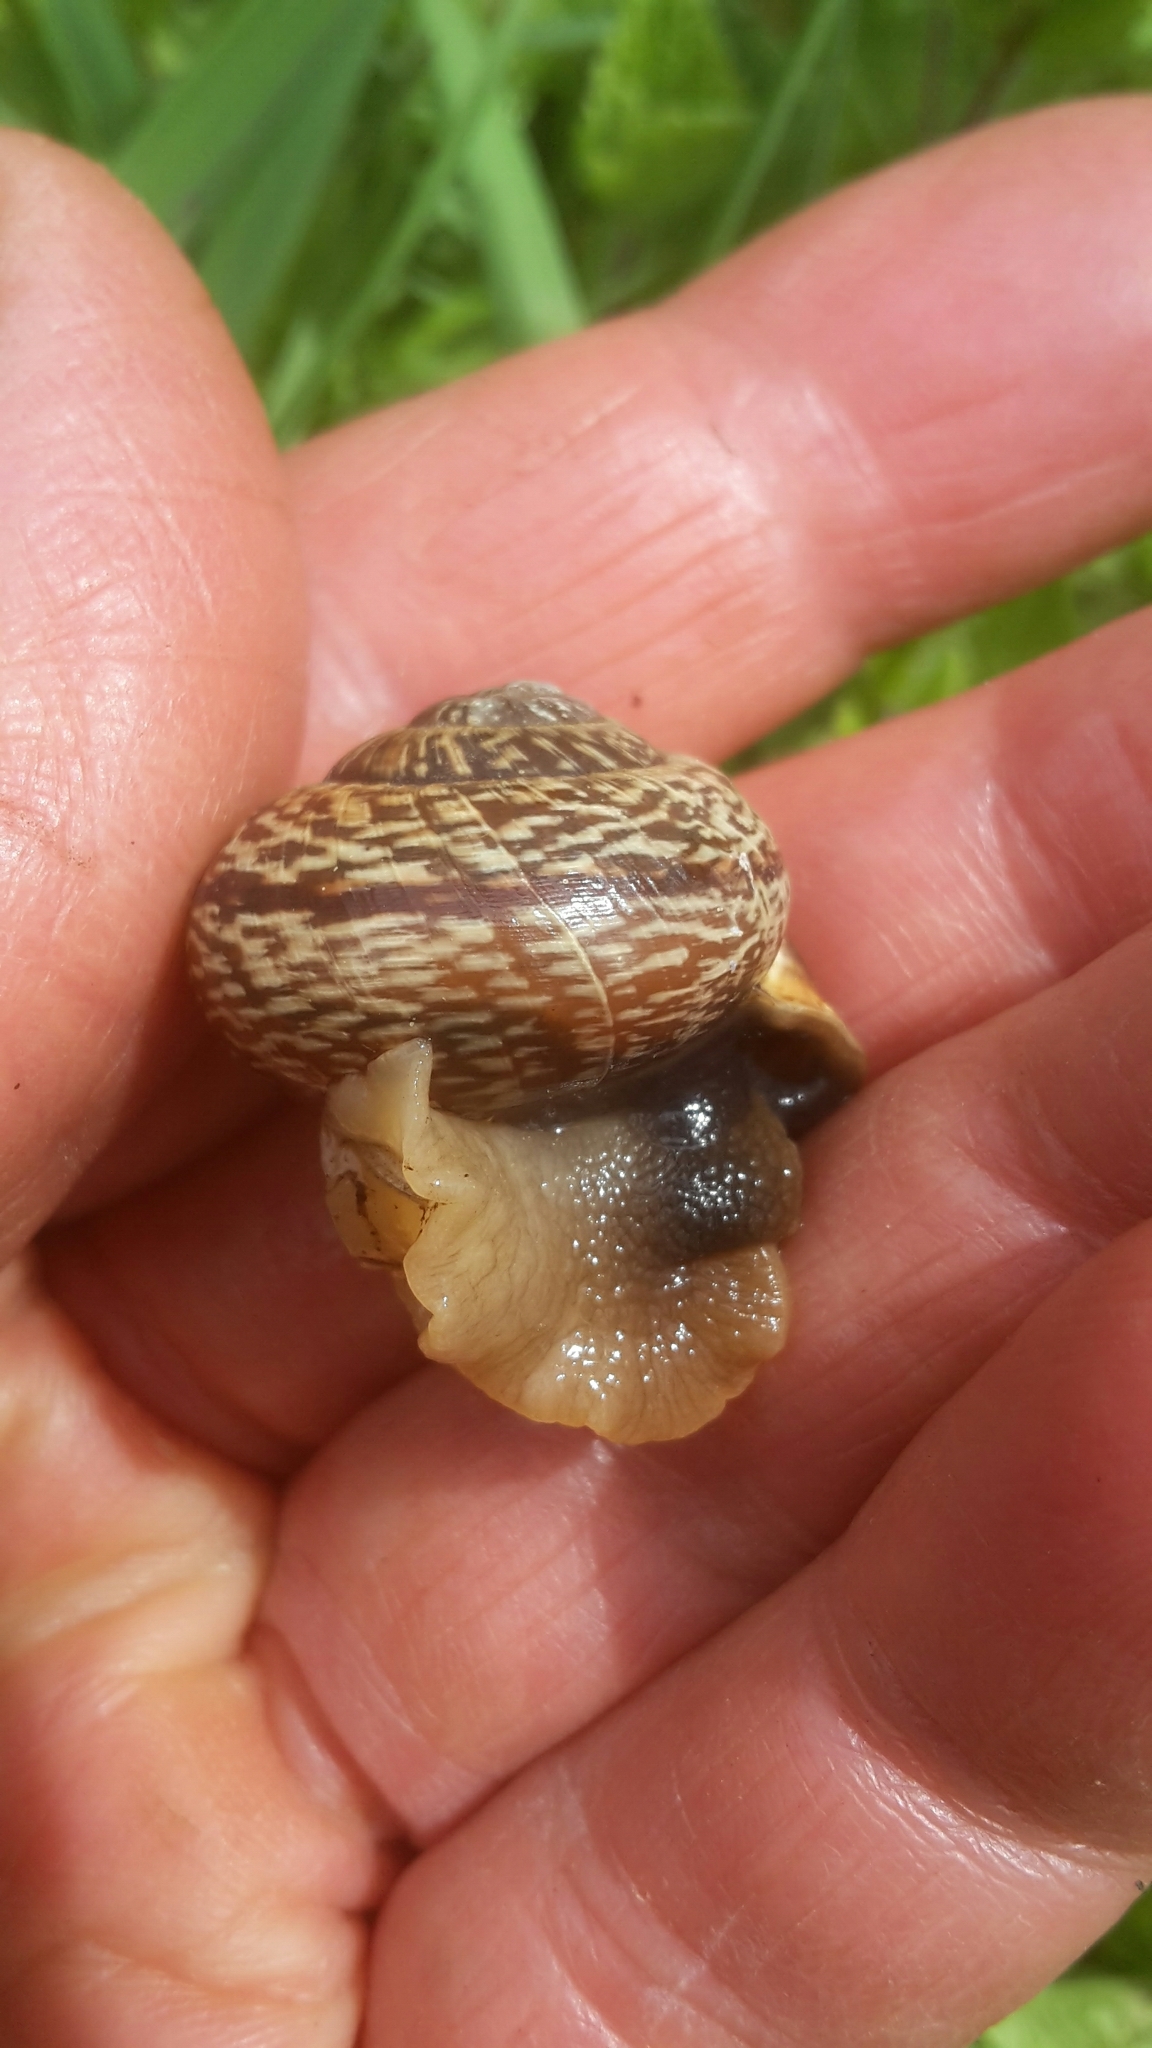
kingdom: Animalia
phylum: Mollusca
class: Gastropoda
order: Stylommatophora
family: Helicidae
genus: Arianta
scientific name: Arianta arbustorum
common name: Copse snail
